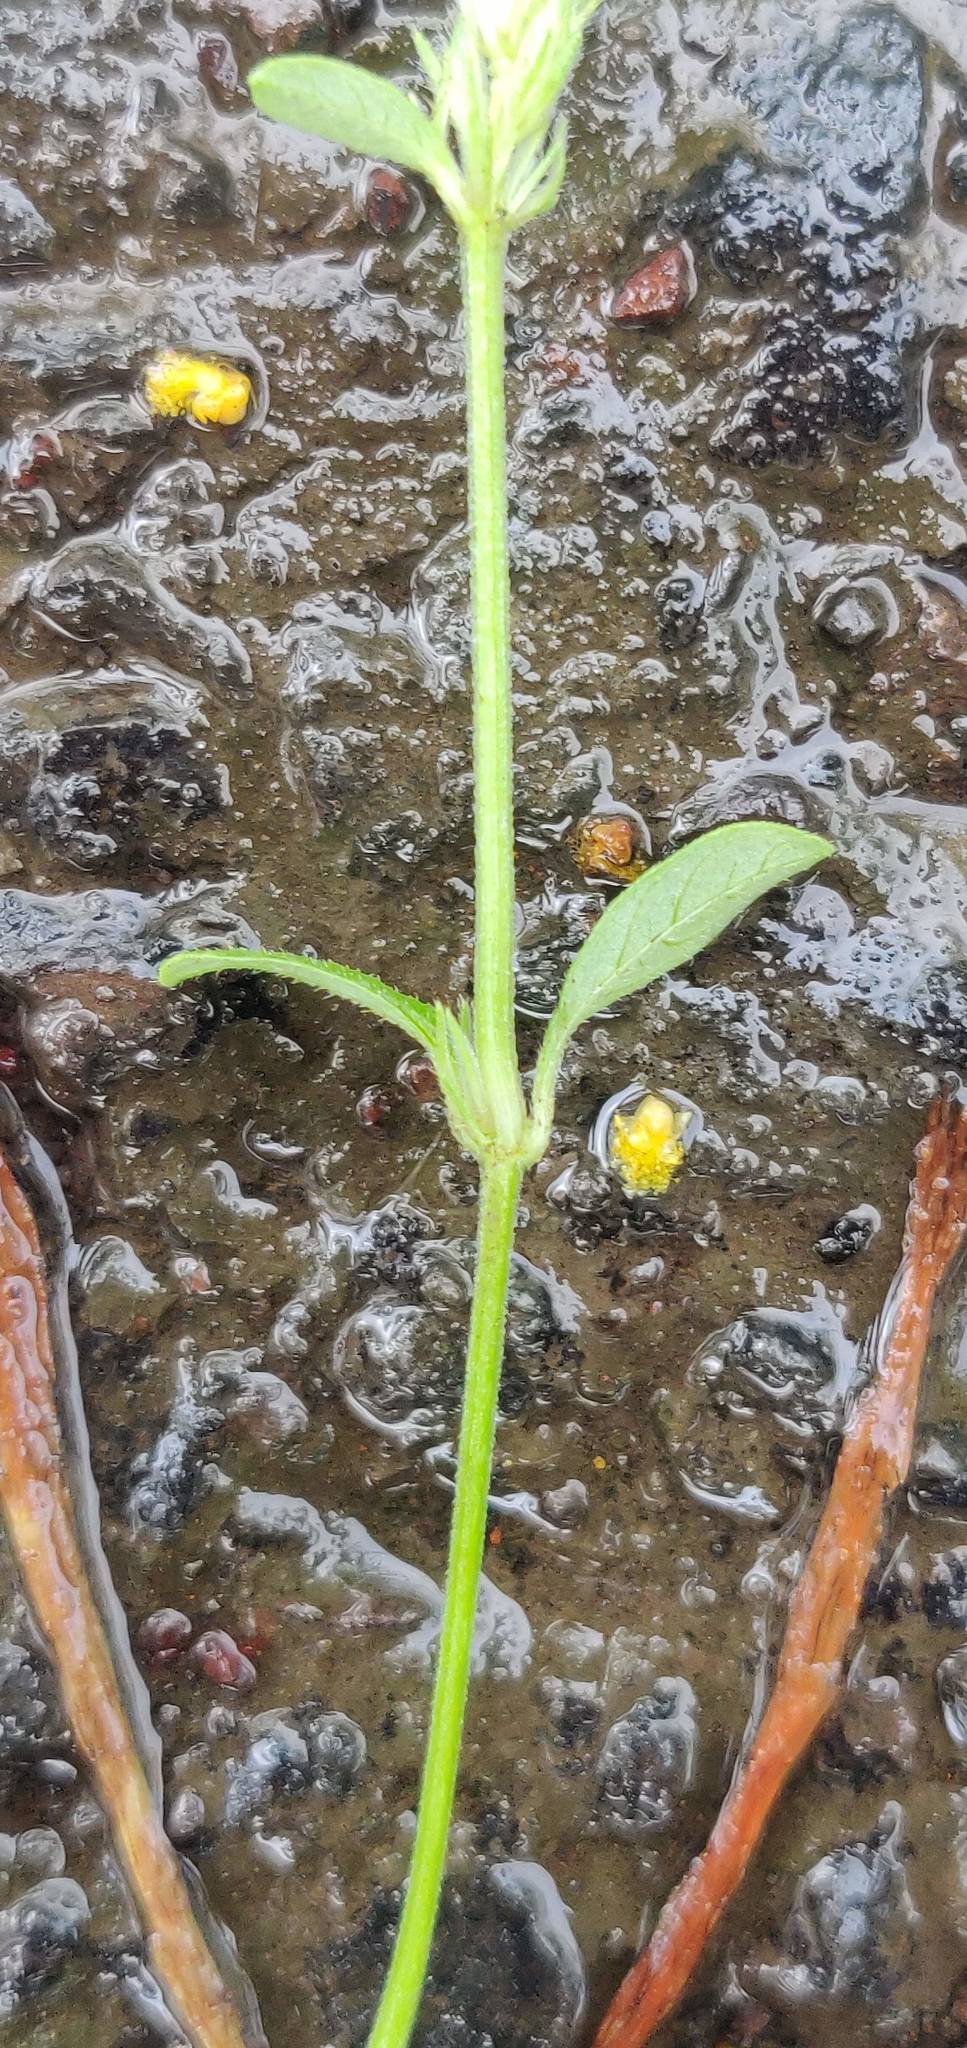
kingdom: Plantae
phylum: Tracheophyta
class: Magnoliopsida
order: Lamiales
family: Acanthaceae
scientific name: Acanthaceae
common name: Acanthaceae
